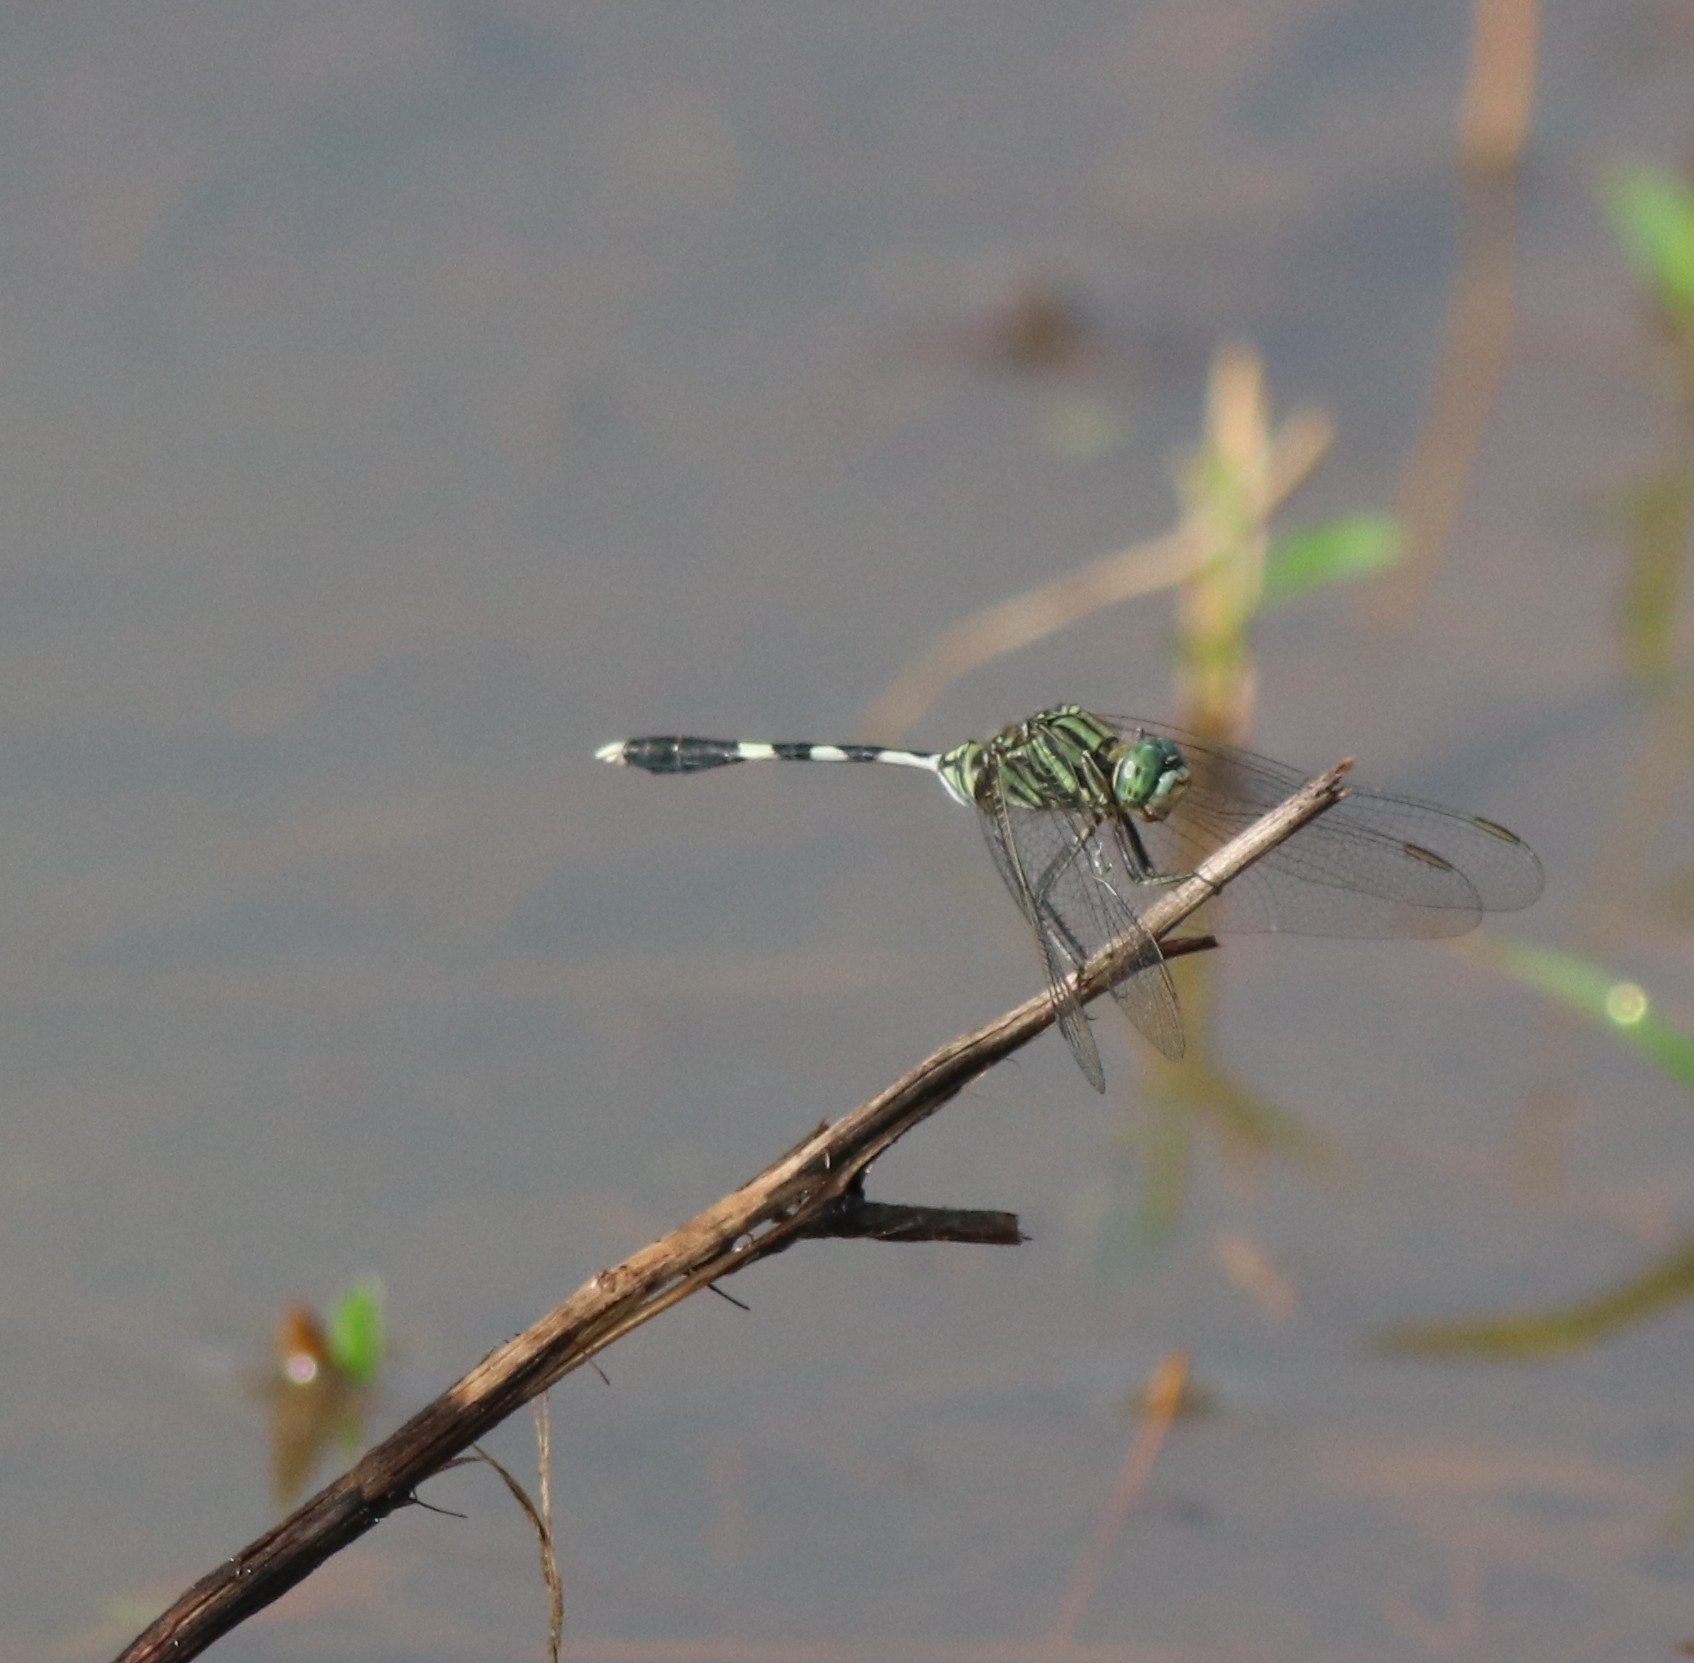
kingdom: Animalia
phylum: Arthropoda
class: Insecta
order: Odonata
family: Libellulidae
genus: Orthetrum
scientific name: Orthetrum sabina
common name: Slender skimmer
